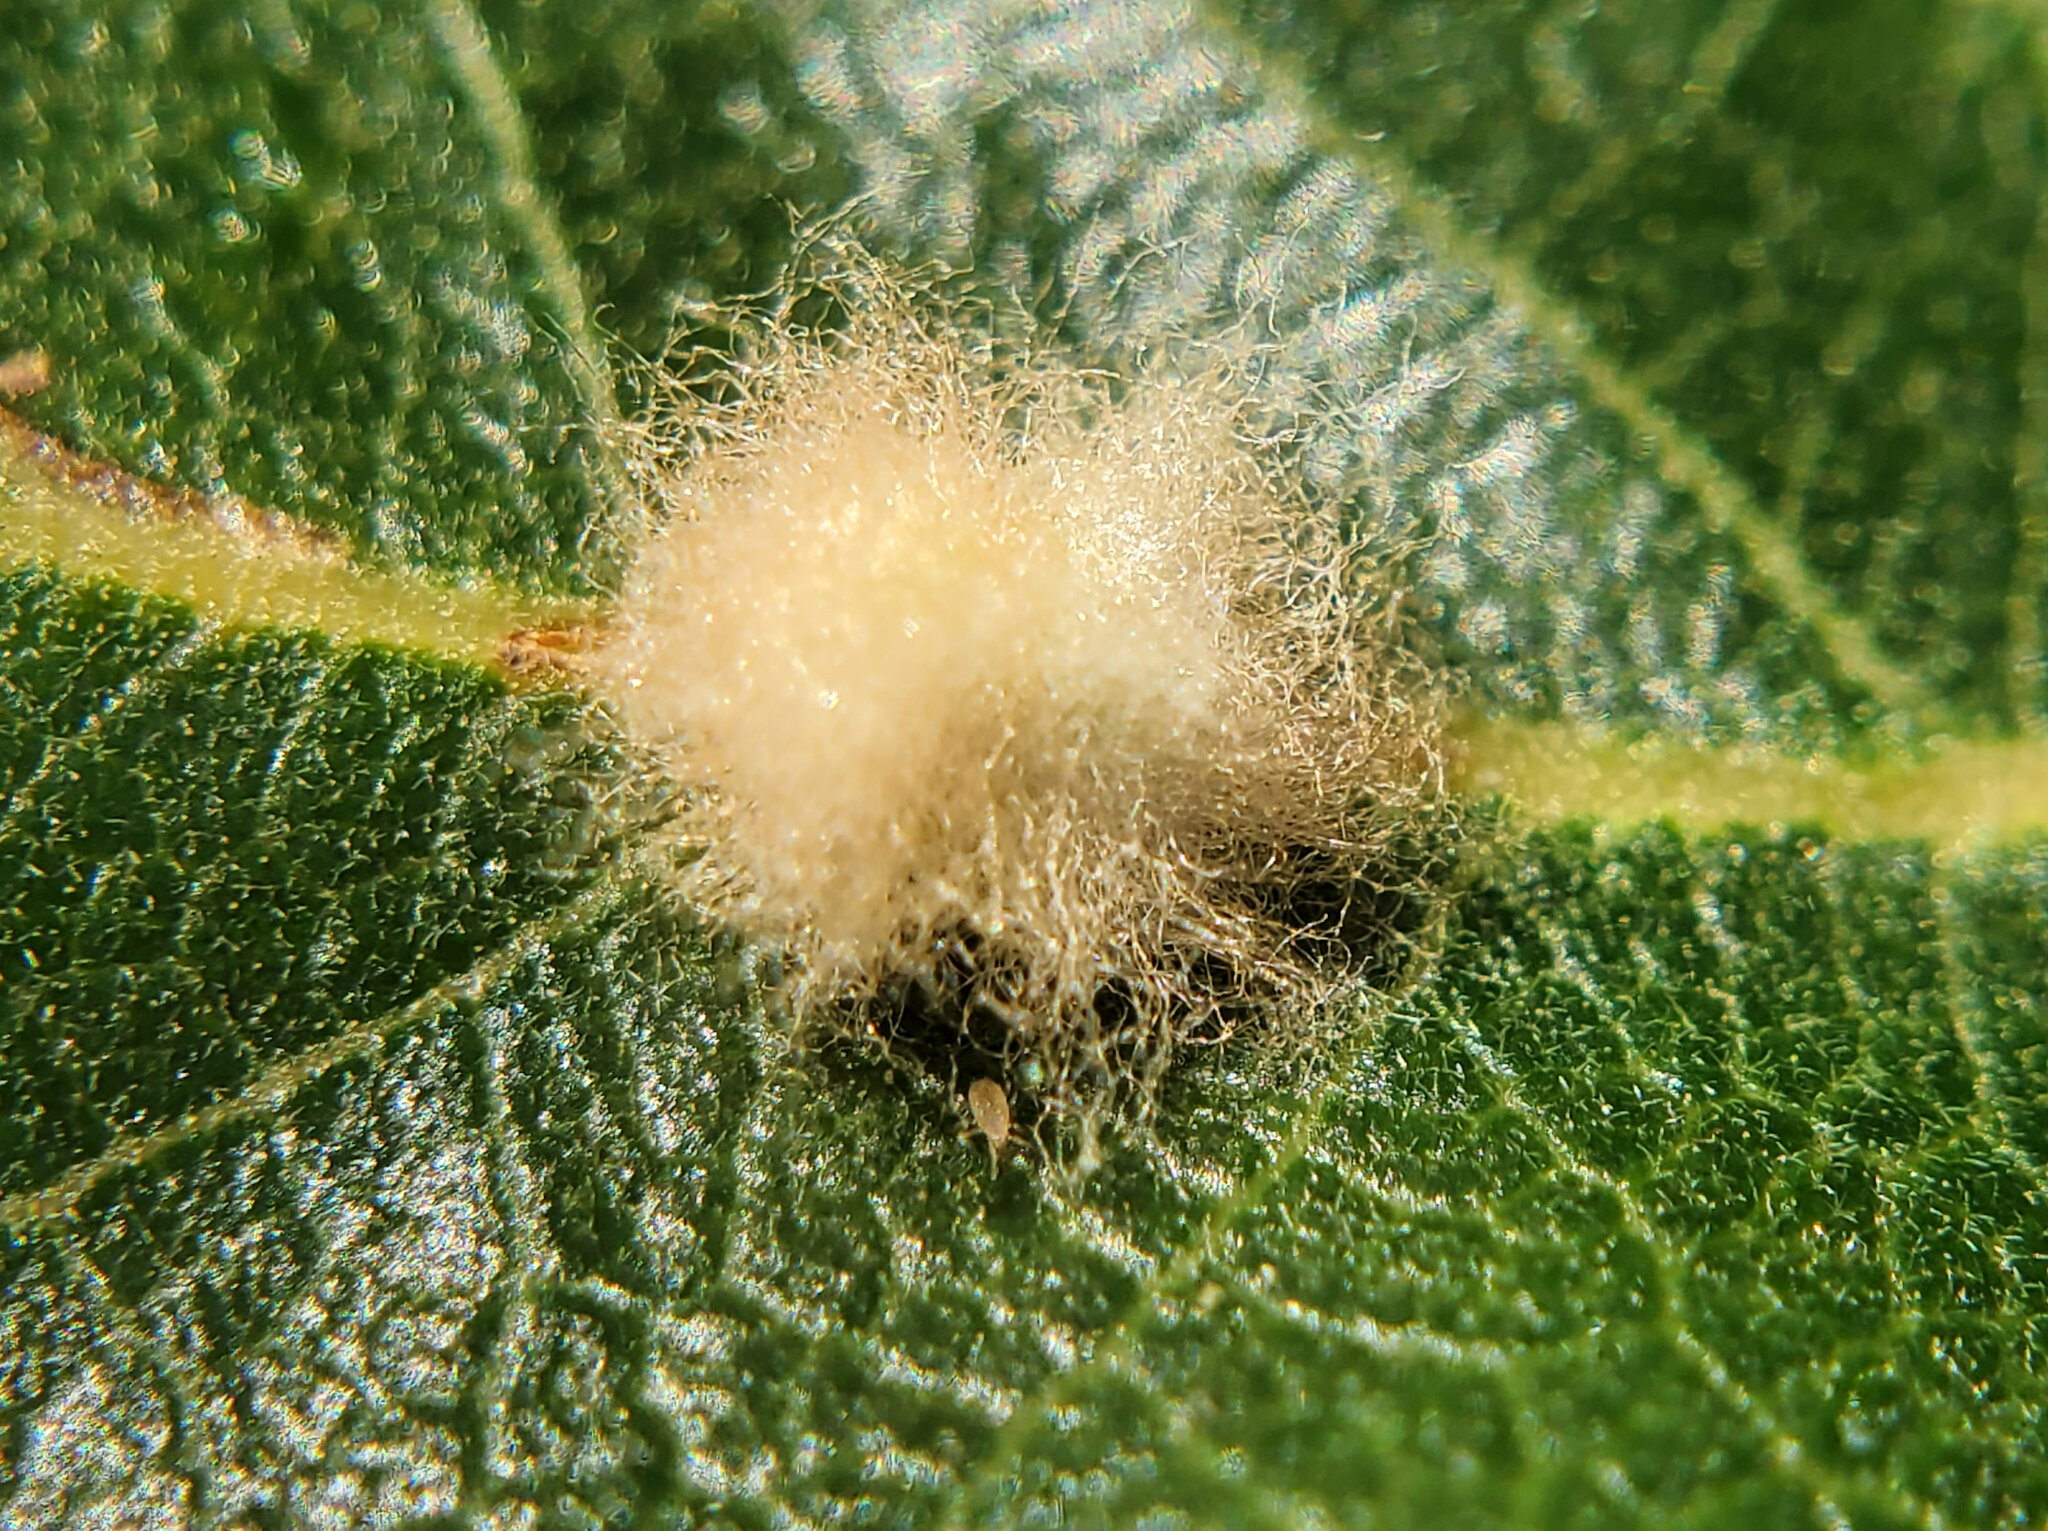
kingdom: Animalia
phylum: Arthropoda
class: Insecta
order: Hymenoptera
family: Cynipidae
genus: Andricus
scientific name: Andricus Druon fullawayi
